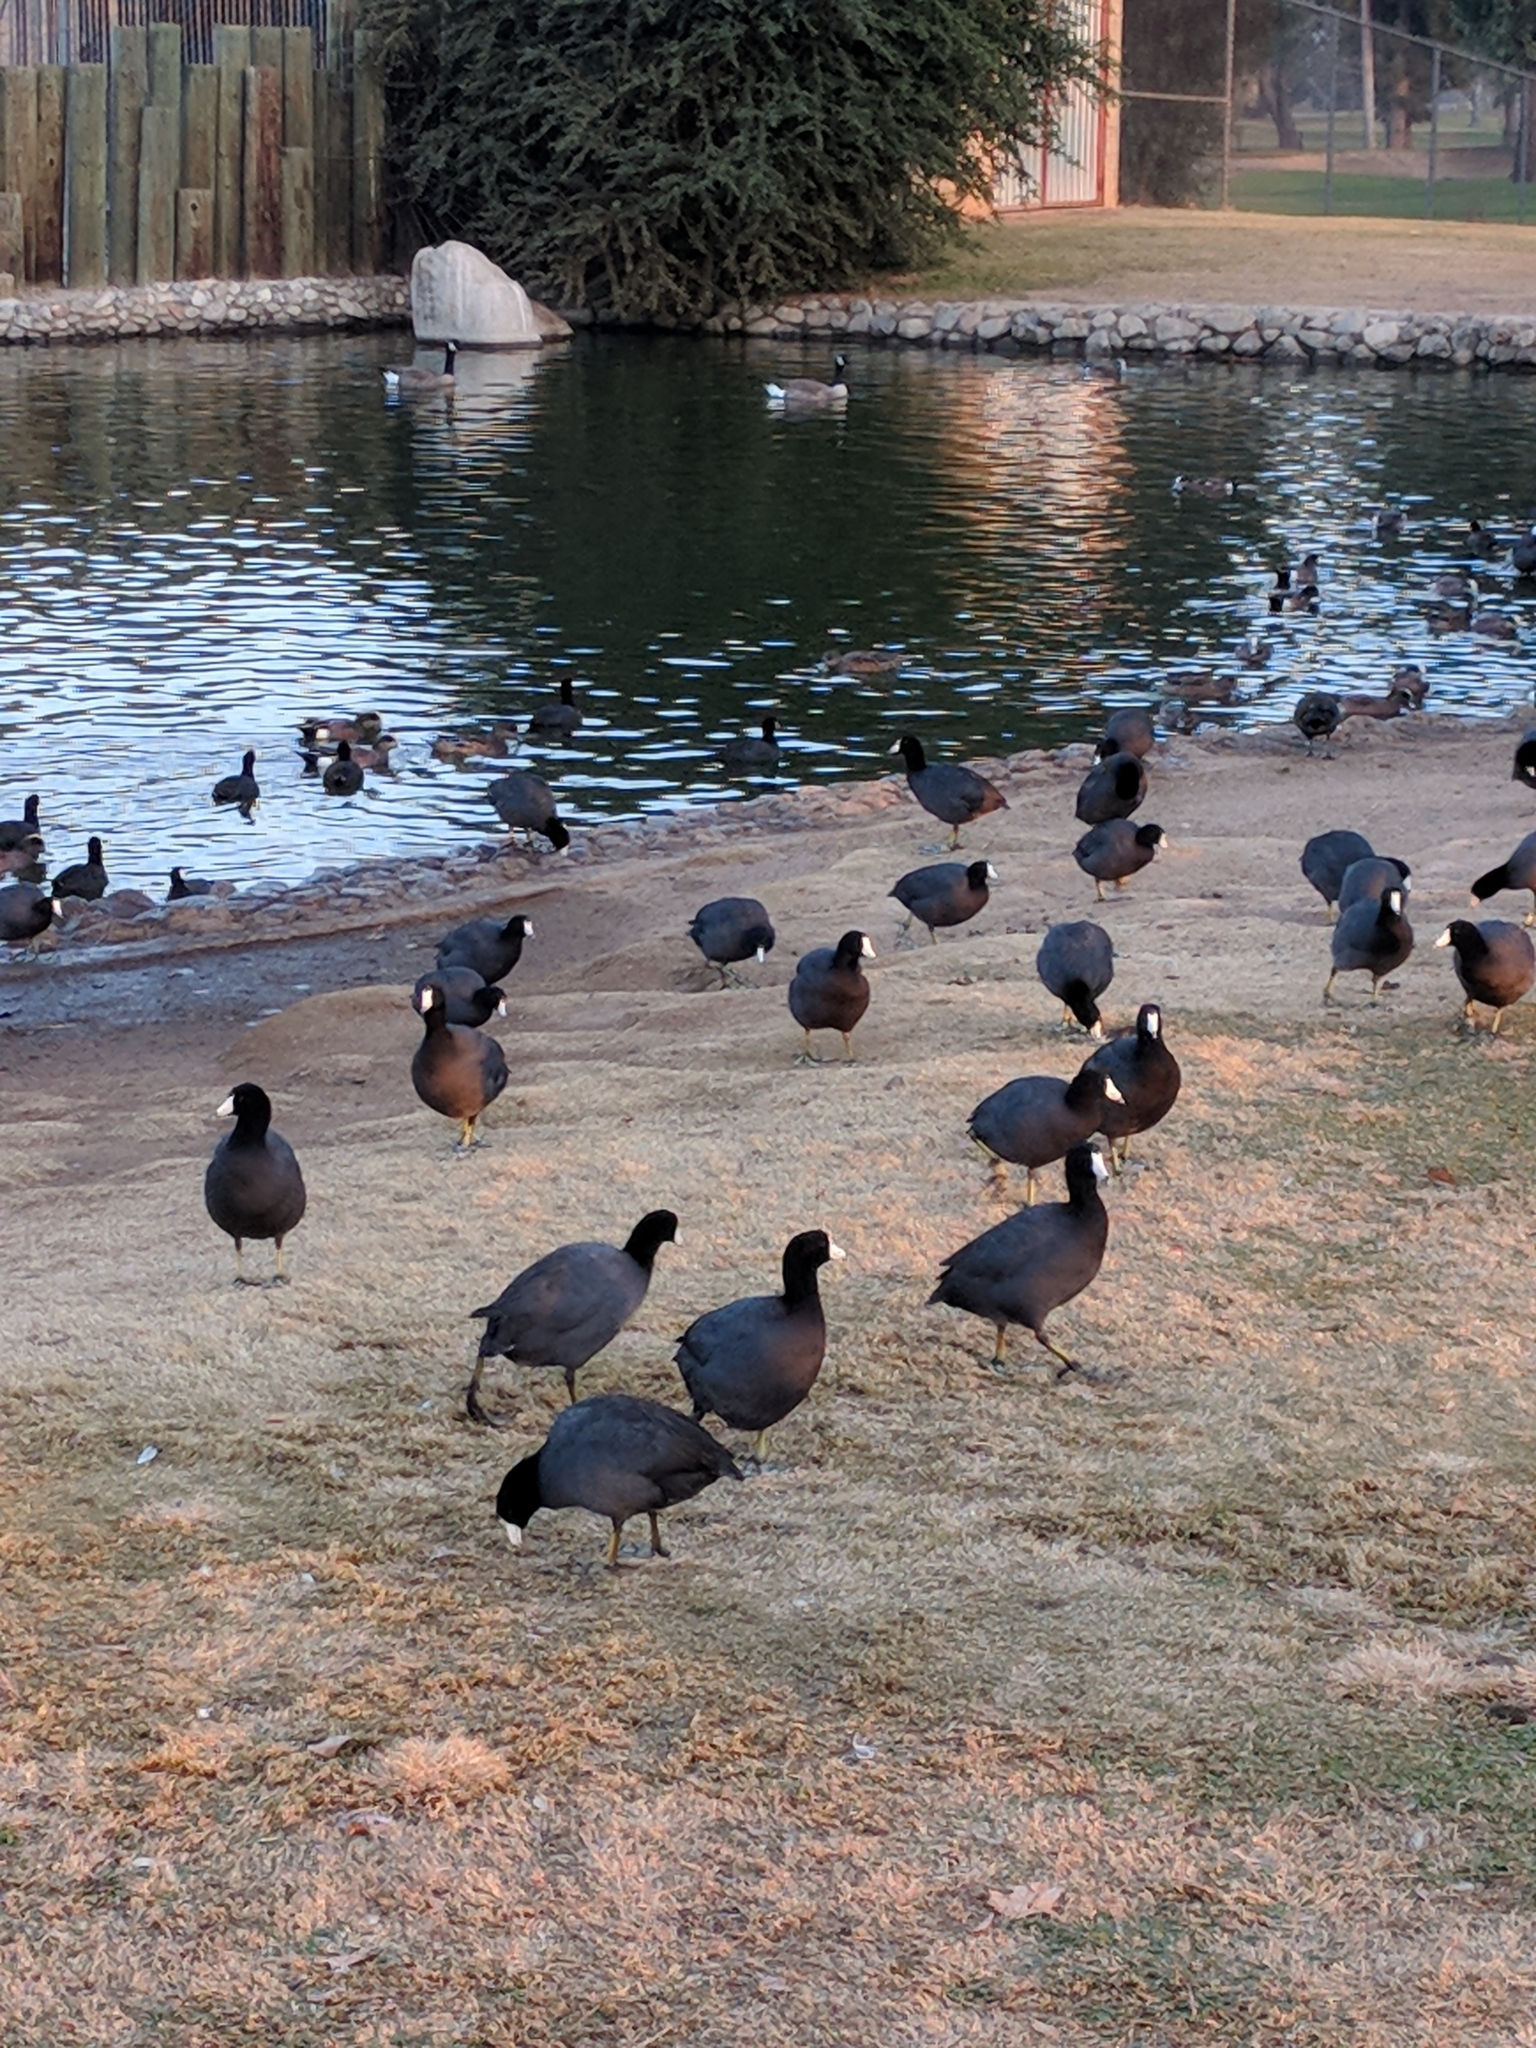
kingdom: Animalia
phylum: Chordata
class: Aves
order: Gruiformes
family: Rallidae
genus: Fulica
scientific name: Fulica americana
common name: American coot
